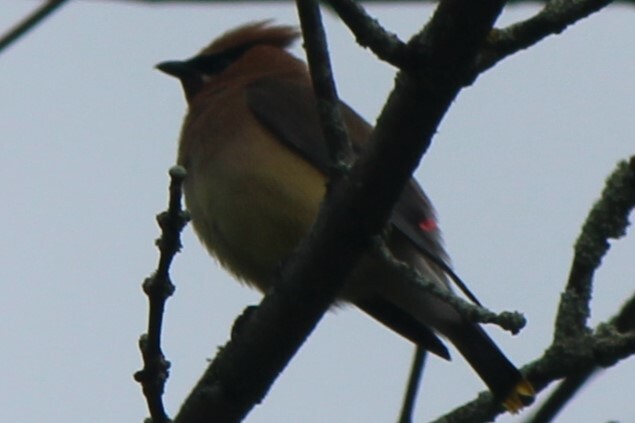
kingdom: Animalia
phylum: Chordata
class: Aves
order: Passeriformes
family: Bombycillidae
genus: Bombycilla
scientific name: Bombycilla cedrorum
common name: Cedar waxwing
